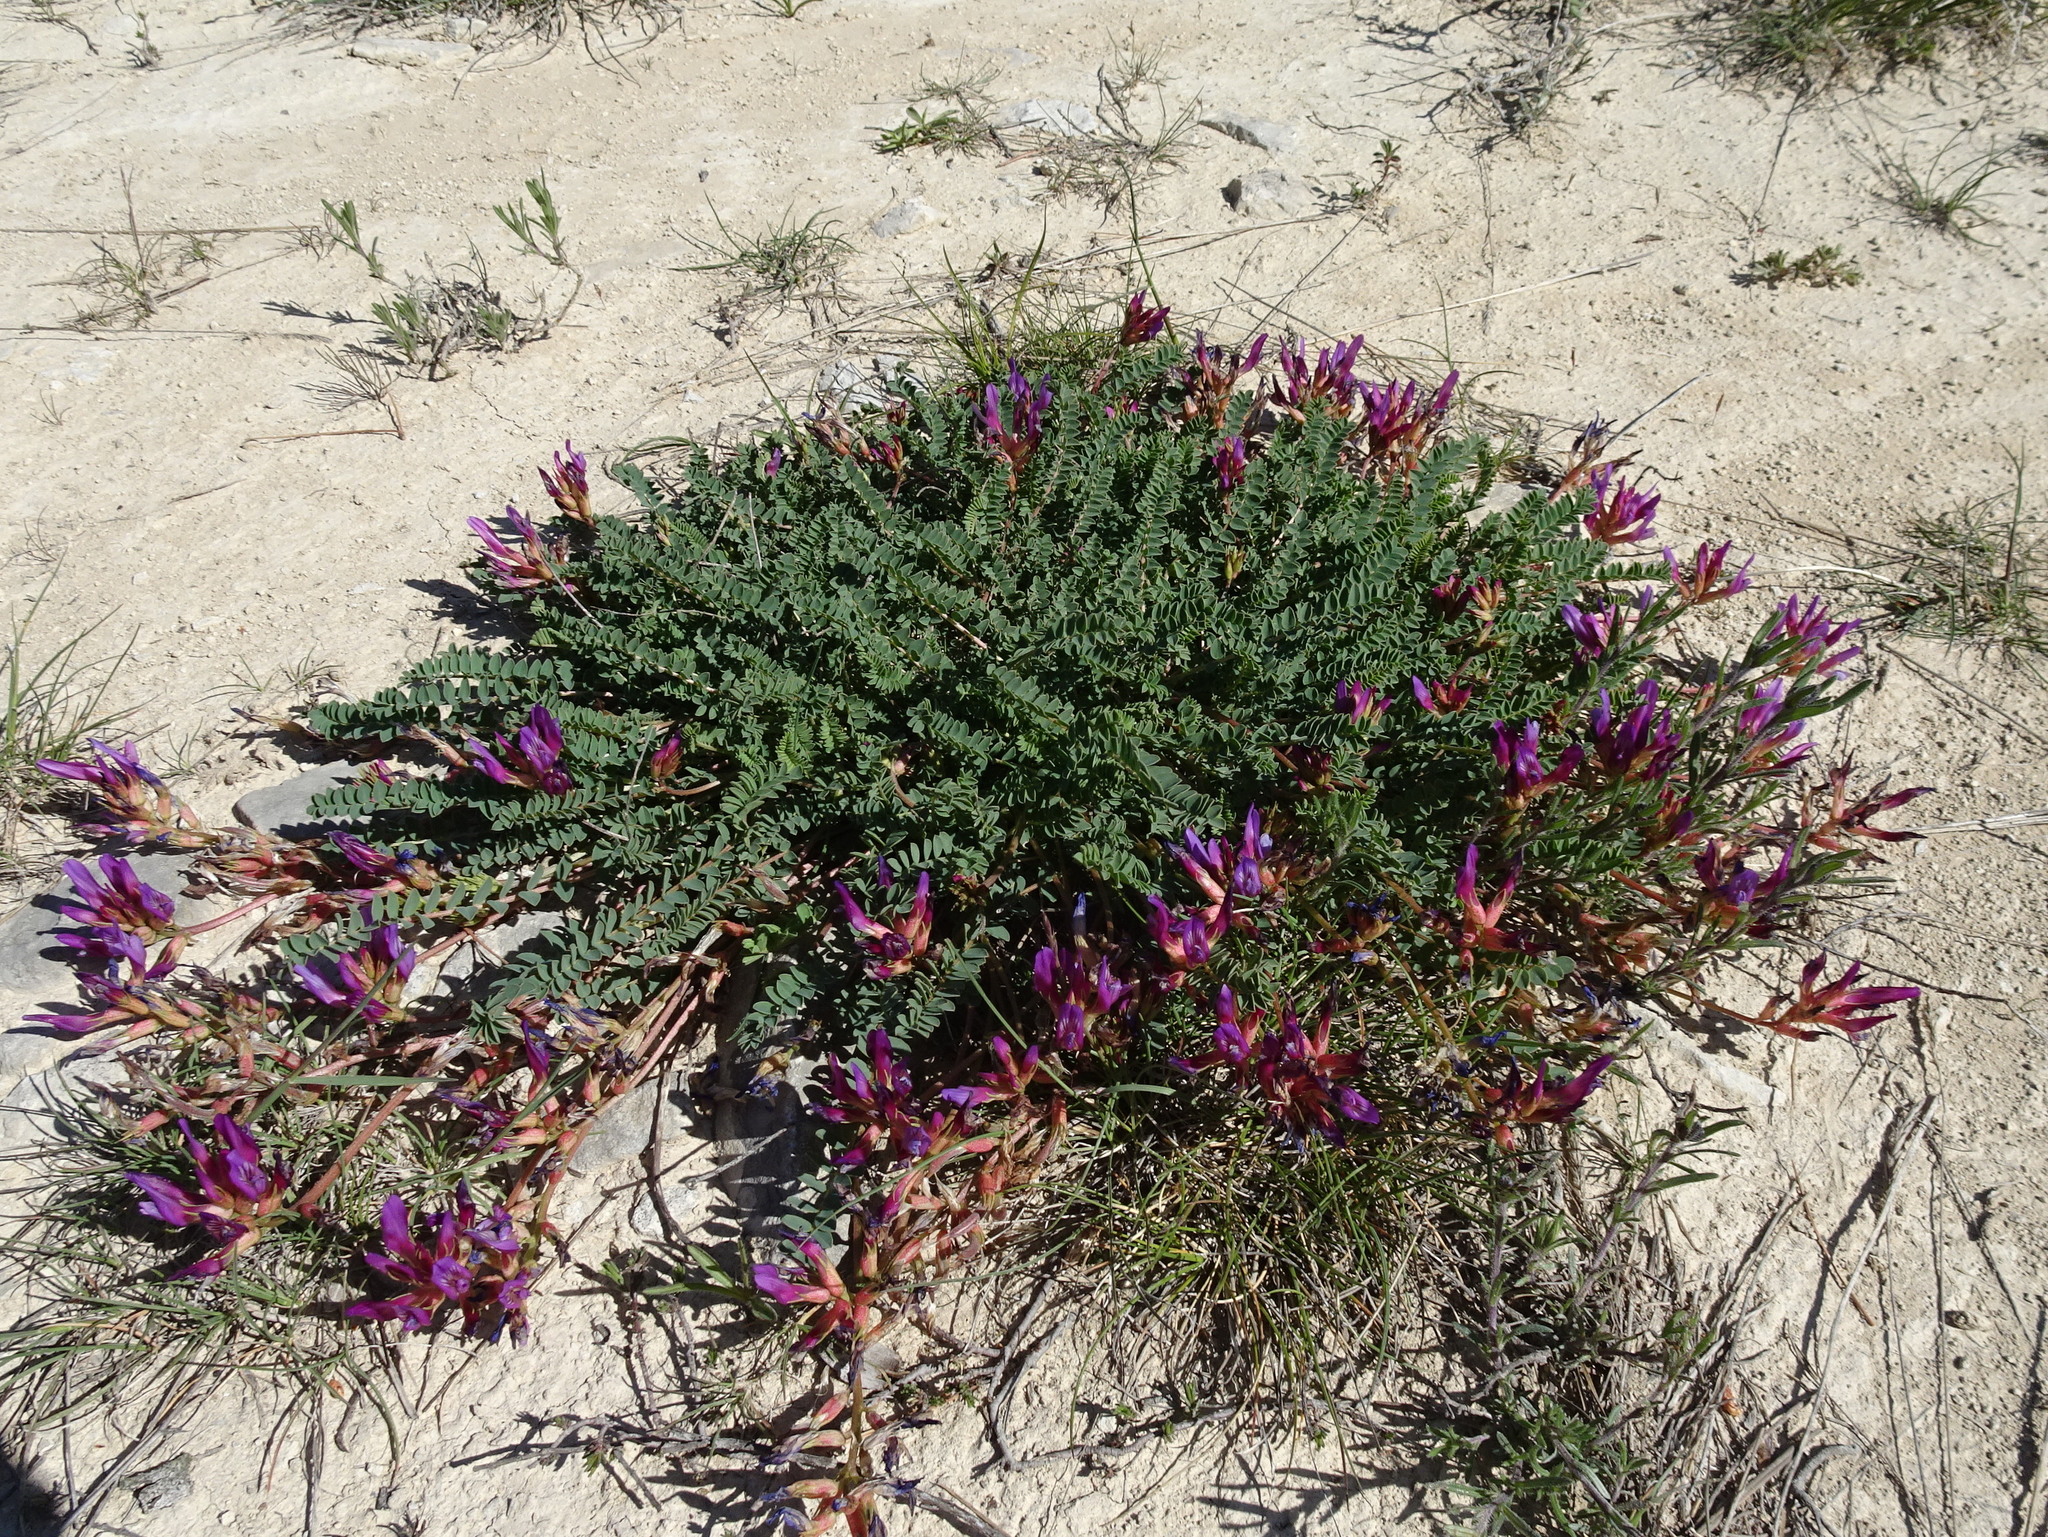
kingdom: Plantae
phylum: Tracheophyta
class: Magnoliopsida
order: Fabales
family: Fabaceae
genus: Astragalus
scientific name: Astragalus monspessulanus
